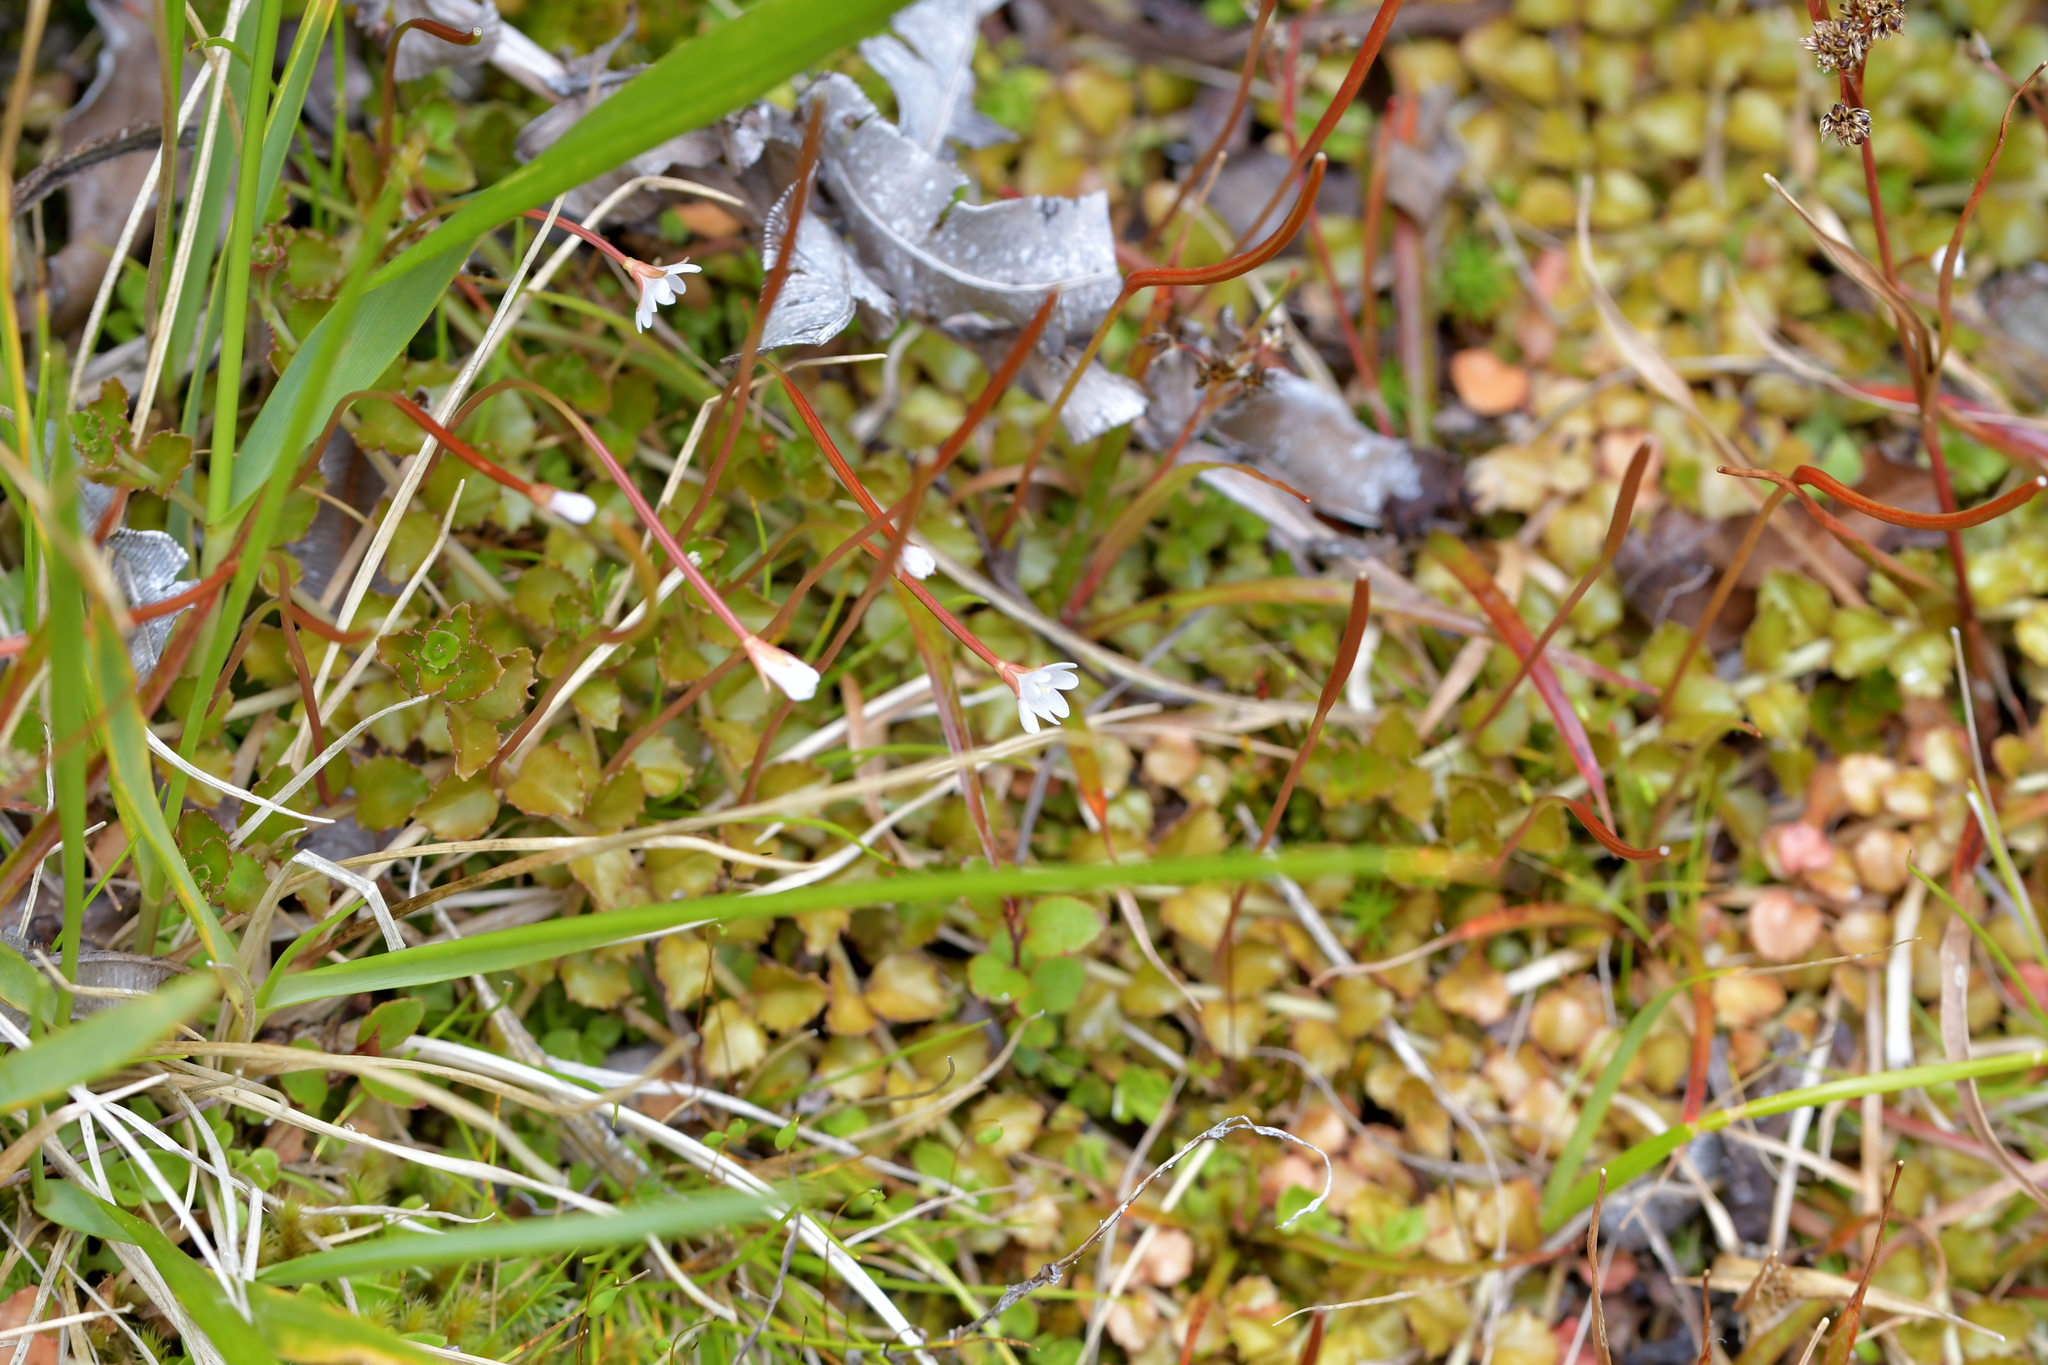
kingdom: Plantae
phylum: Tracheophyta
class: Magnoliopsida
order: Myrtales
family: Onagraceae
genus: Epilobium
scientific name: Epilobium brunnescens
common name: New zealand willowherb
